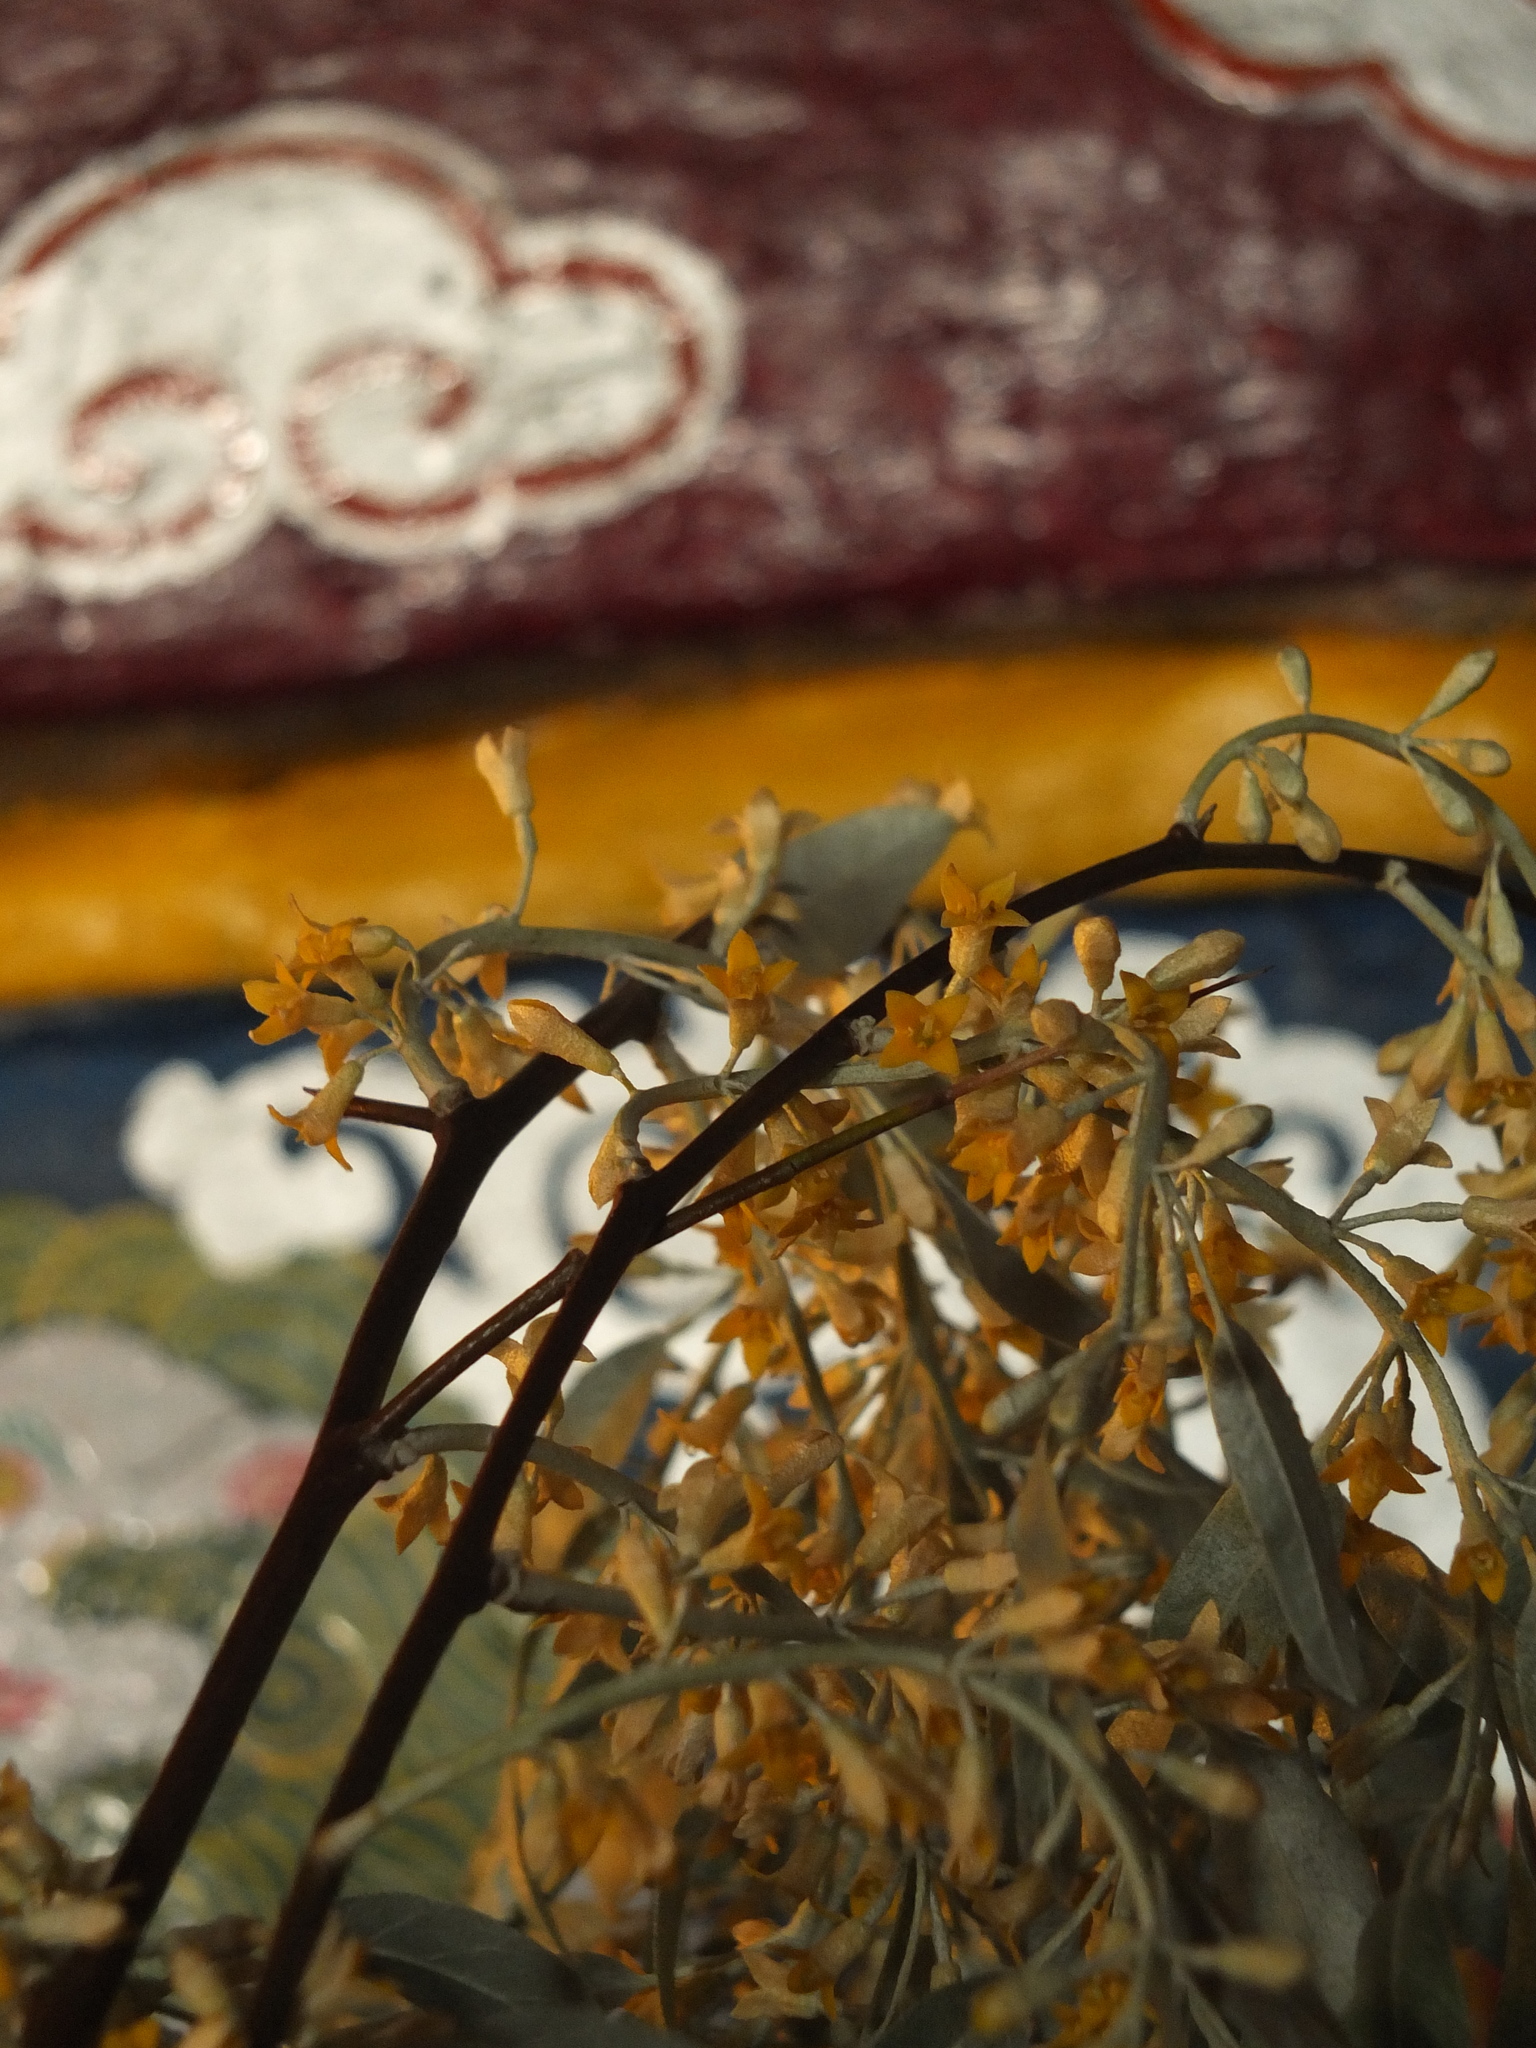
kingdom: Plantae
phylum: Tracheophyta
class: Magnoliopsida
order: Rosales
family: Elaeagnaceae
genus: Elaeagnus
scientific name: Elaeagnus umbellata
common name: Autumn olive
